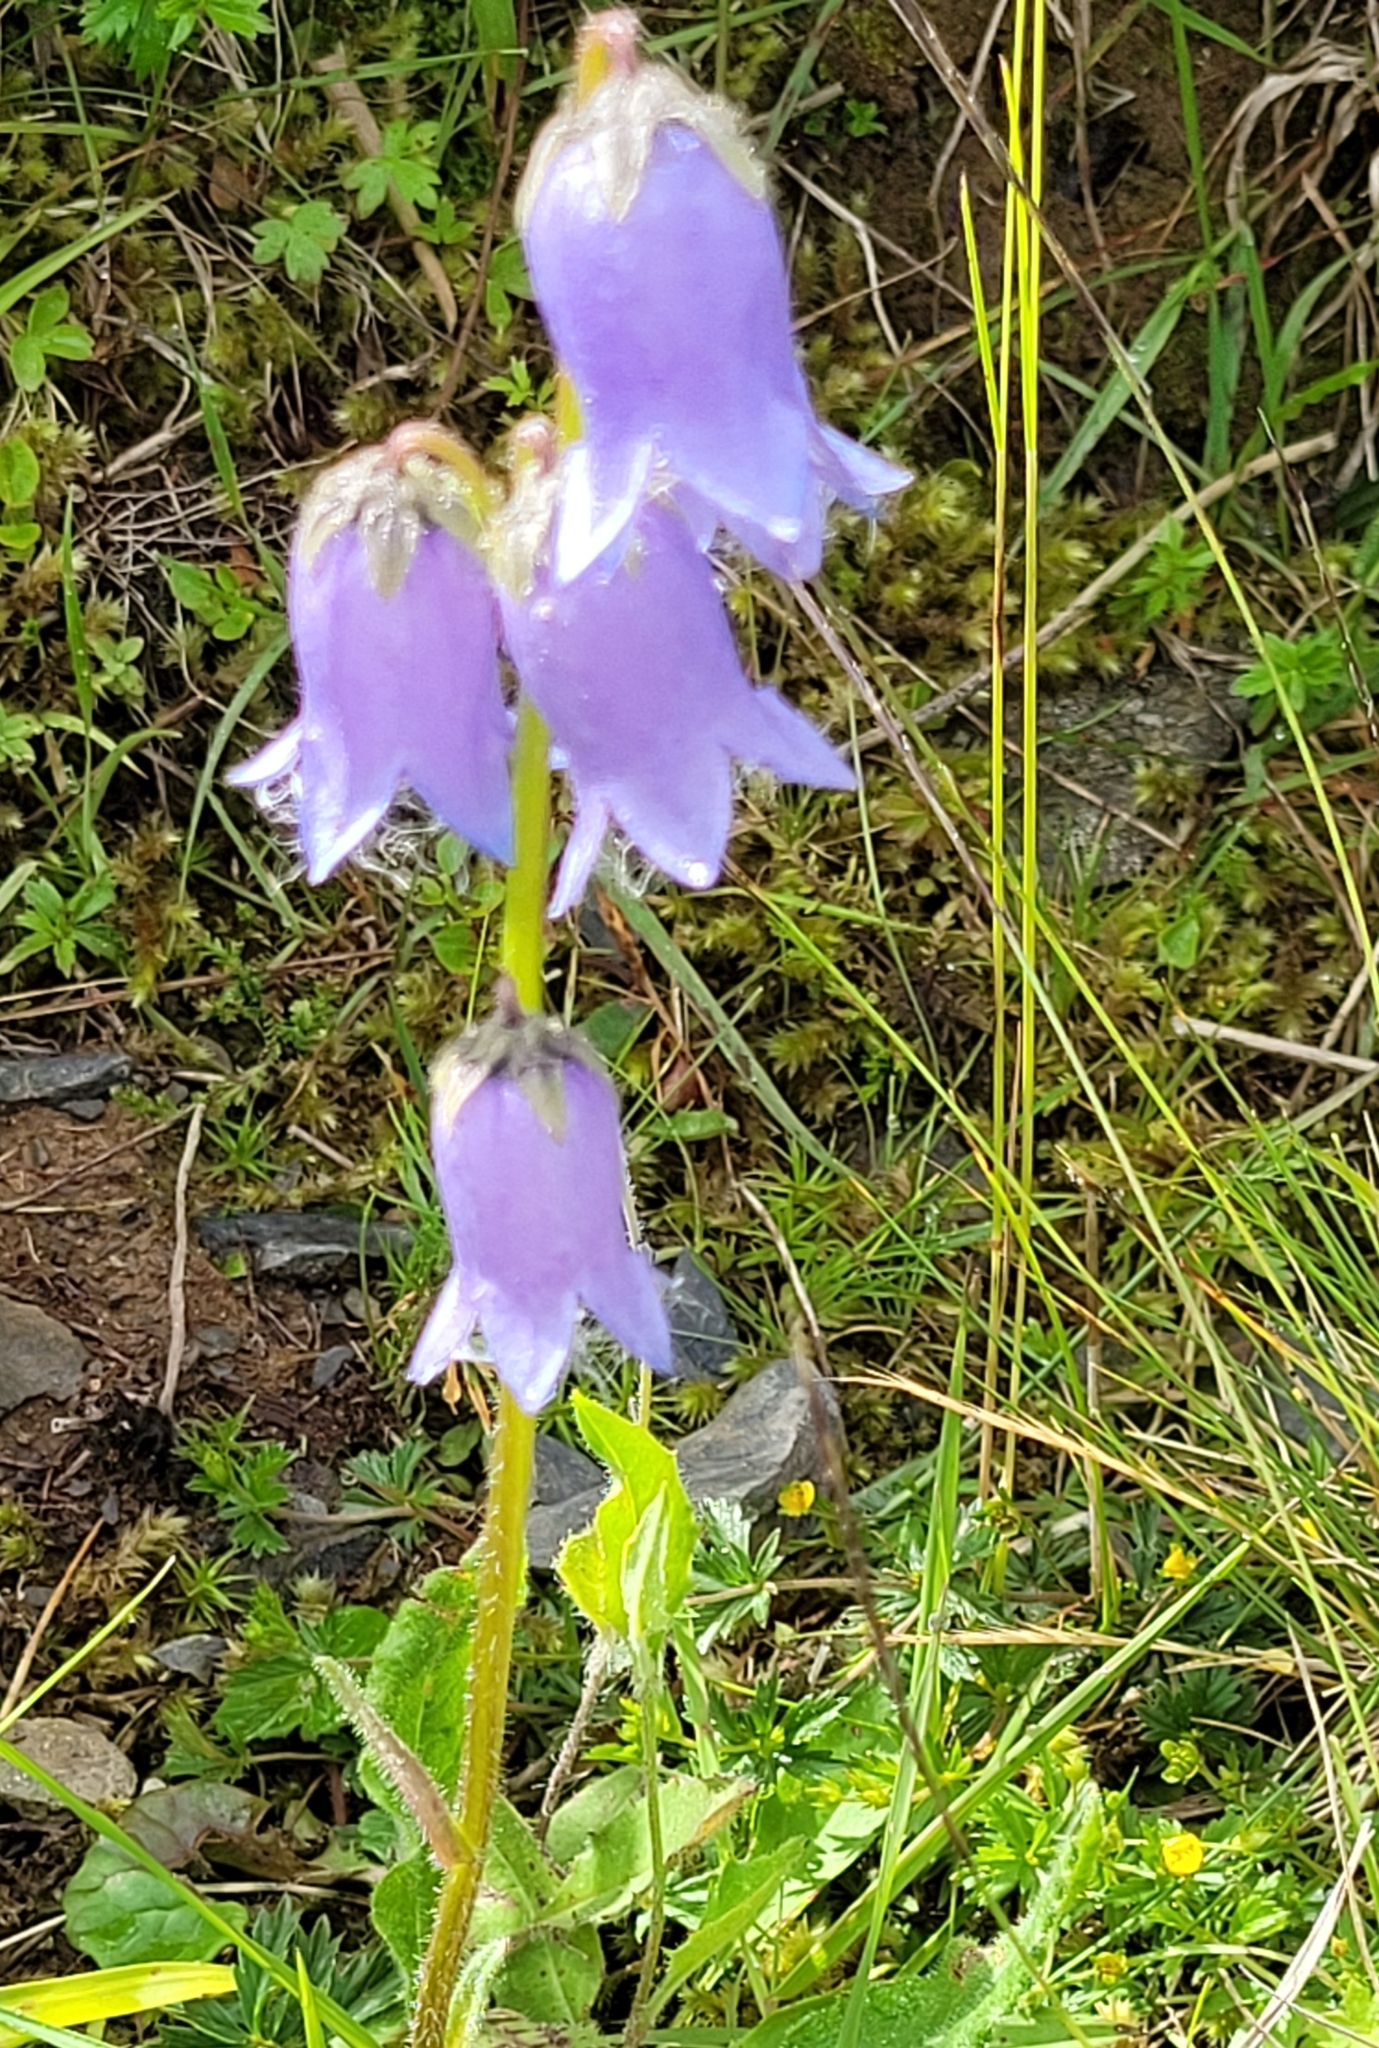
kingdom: Plantae
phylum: Tracheophyta
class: Magnoliopsida
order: Asterales
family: Campanulaceae
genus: Campanula
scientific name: Campanula barbata
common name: Bearded bellflower
